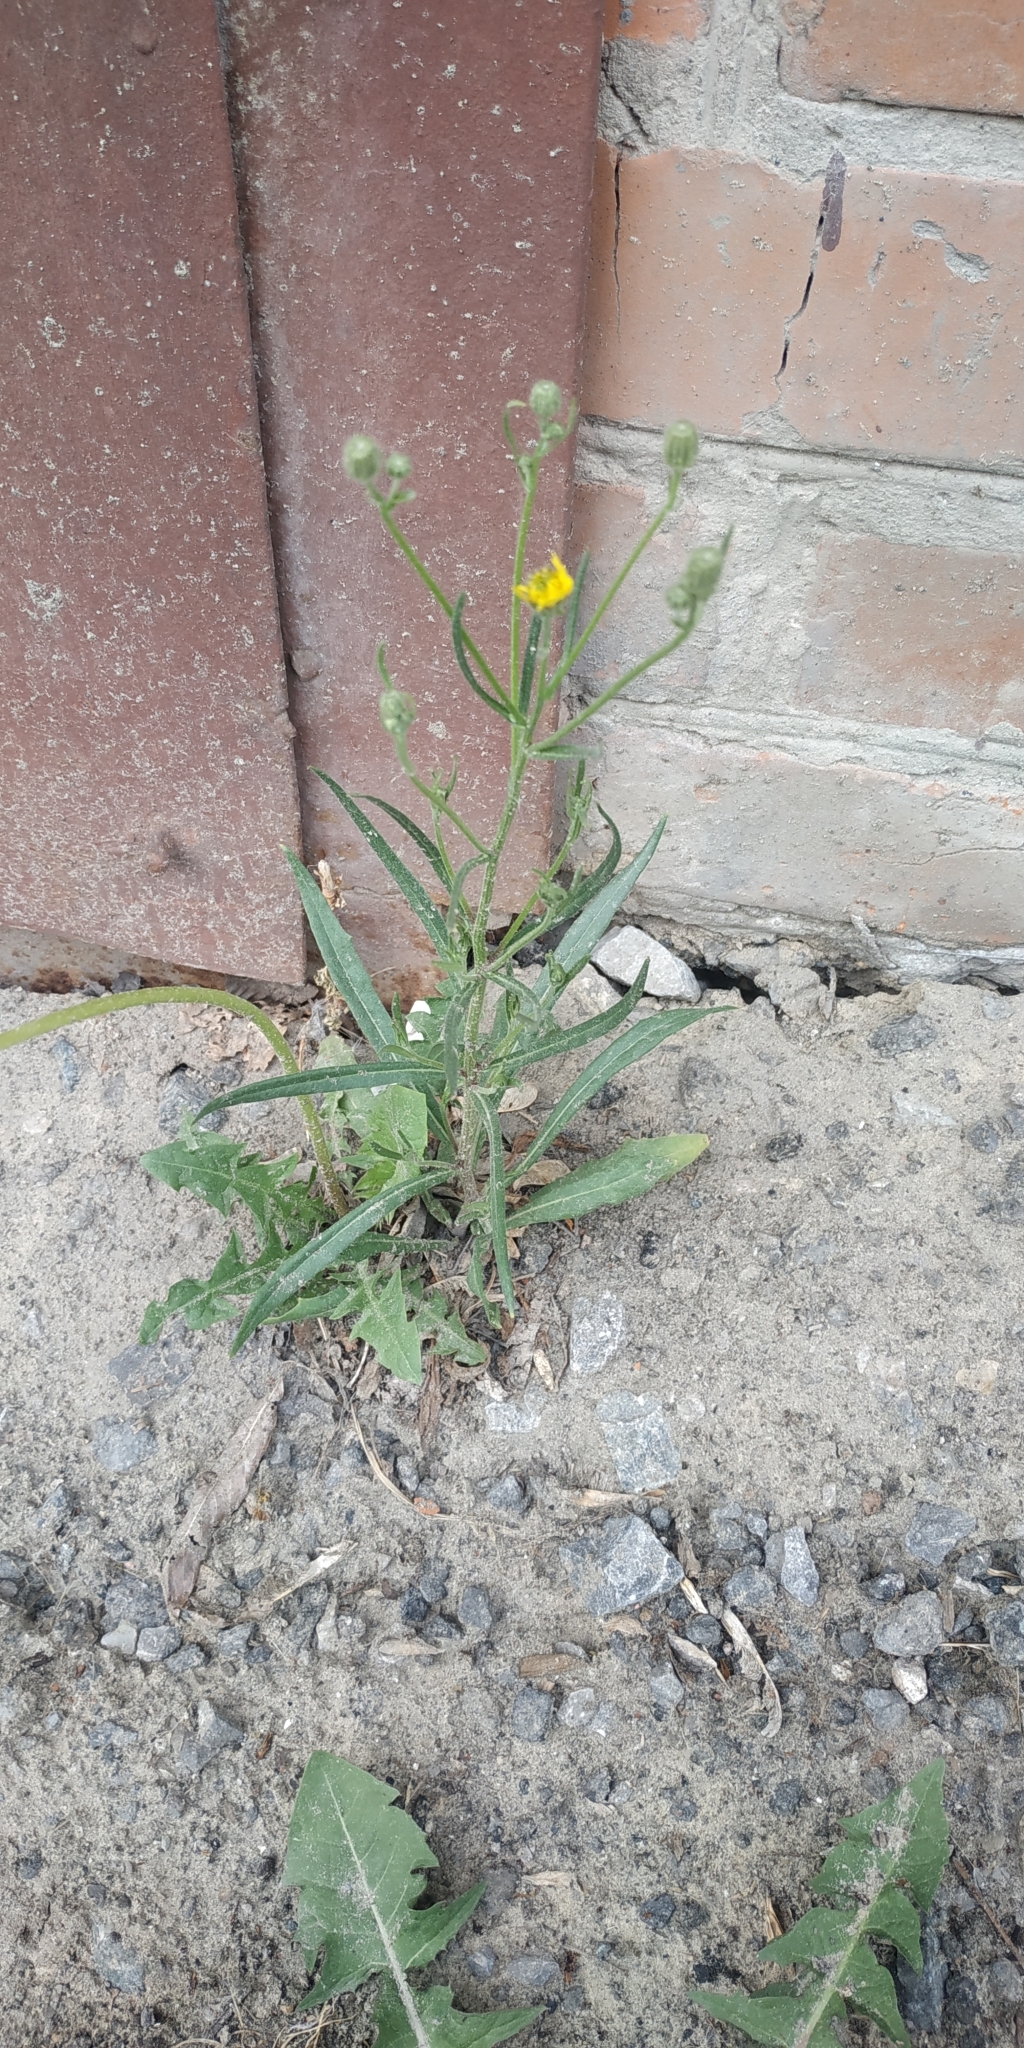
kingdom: Plantae
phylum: Tracheophyta
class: Magnoliopsida
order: Asterales
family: Asteraceae
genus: Crepis
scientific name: Crepis tectorum
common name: Narrow-leaved hawk's-beard
